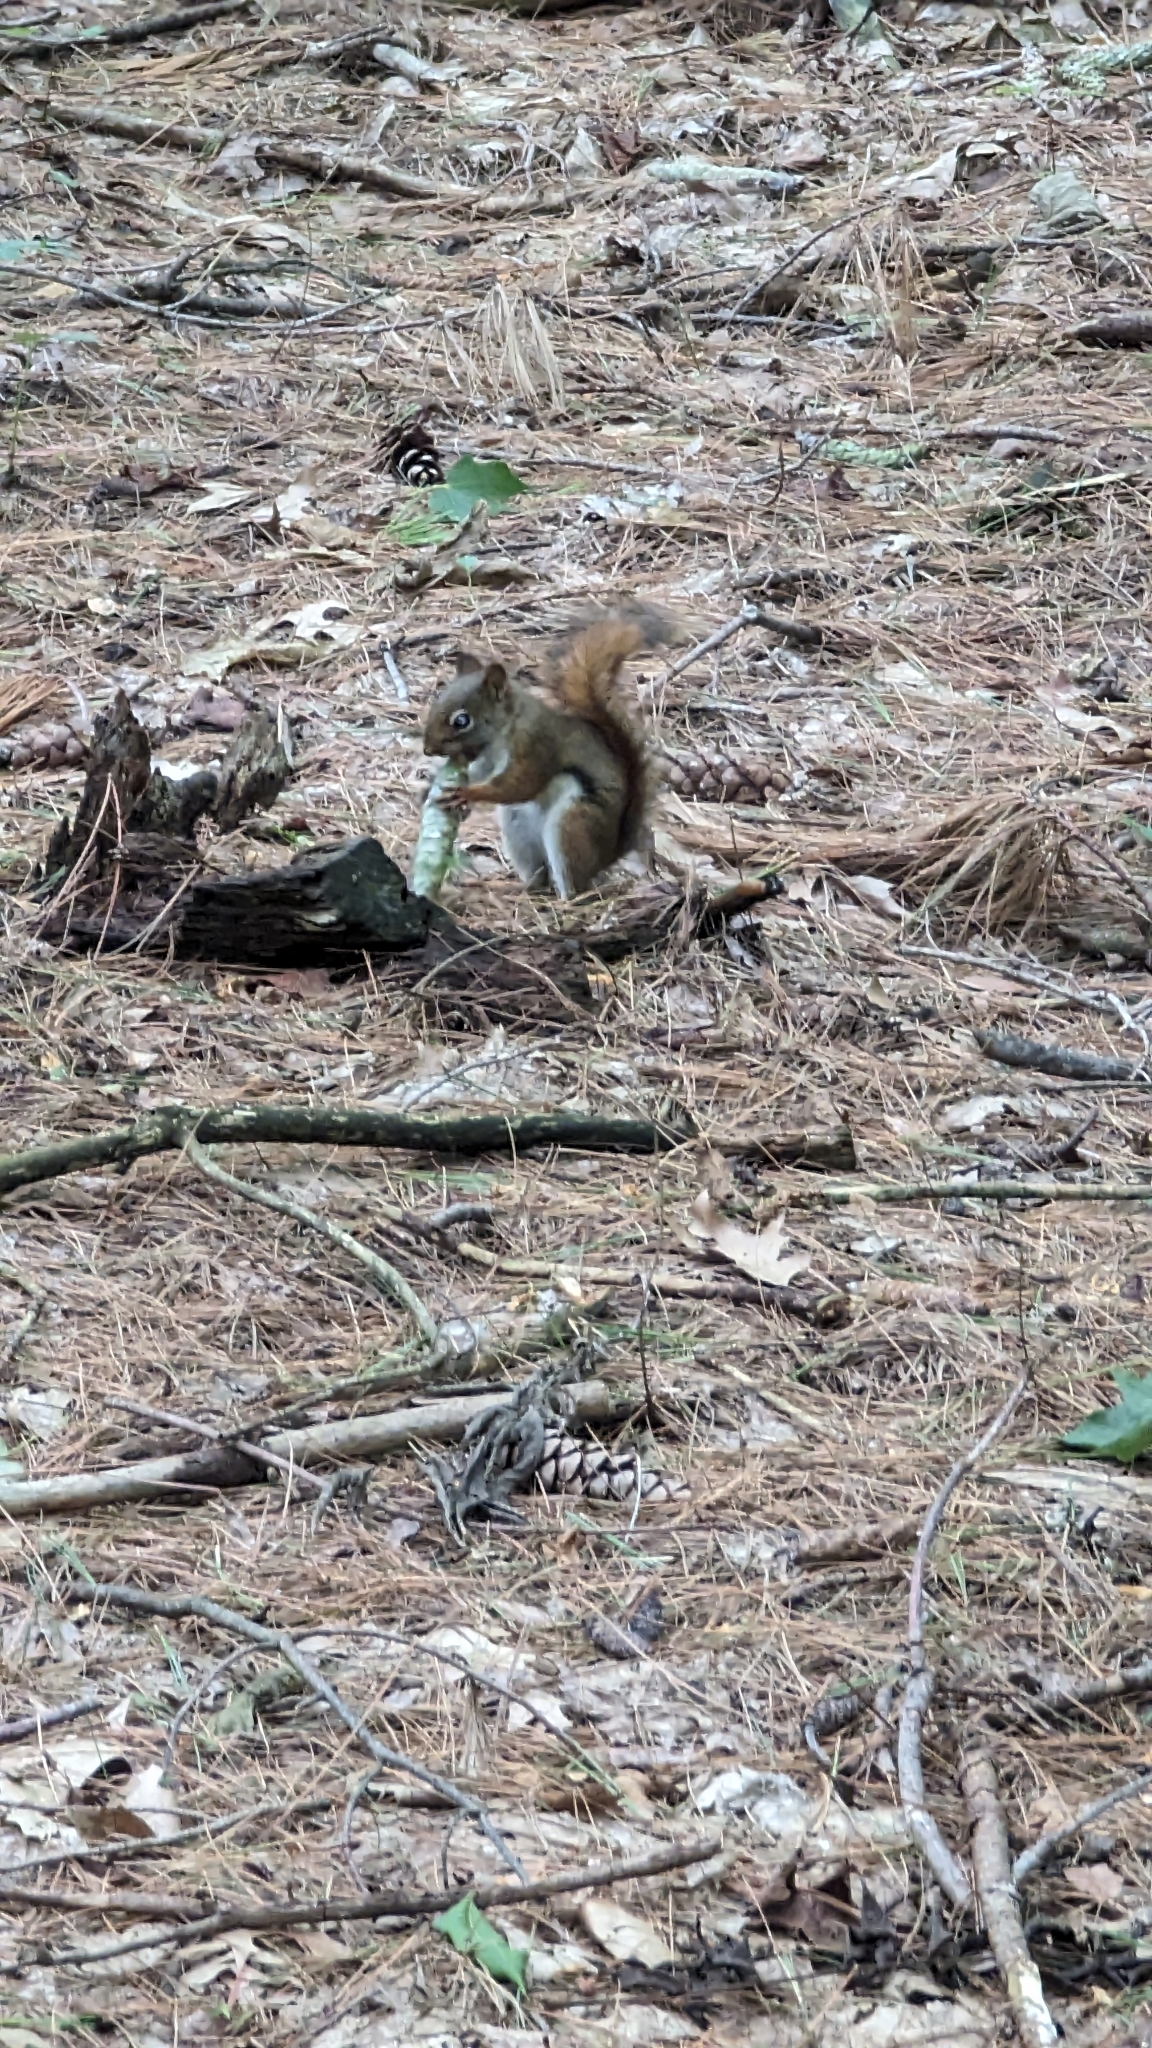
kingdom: Animalia
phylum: Chordata
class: Mammalia
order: Rodentia
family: Sciuridae
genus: Tamiasciurus
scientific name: Tamiasciurus hudsonicus
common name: Red squirrel
